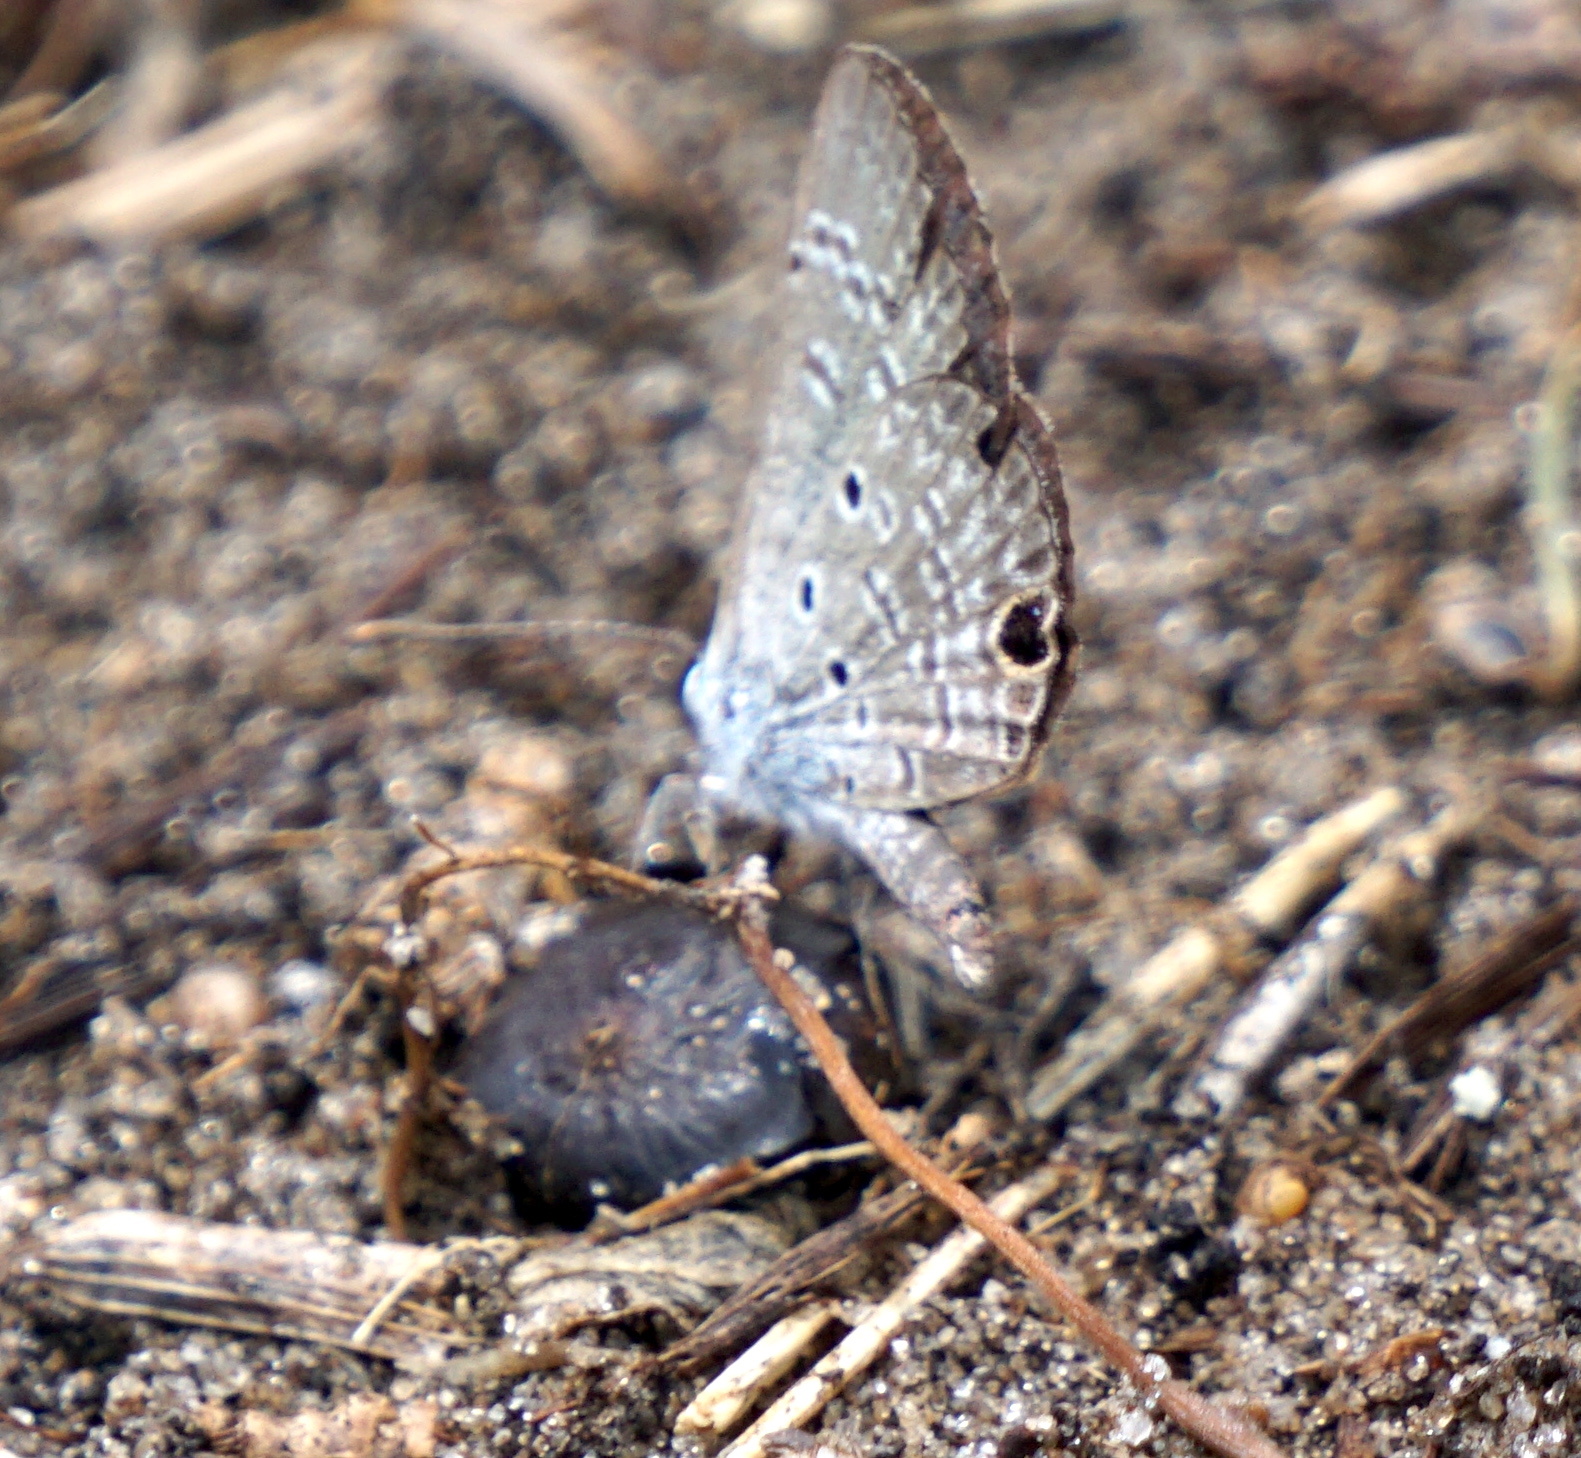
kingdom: Animalia
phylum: Arthropoda
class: Insecta
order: Lepidoptera
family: Lycaenidae
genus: Hemiargus
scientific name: Hemiargus ceraunus
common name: Ceraunus blue
